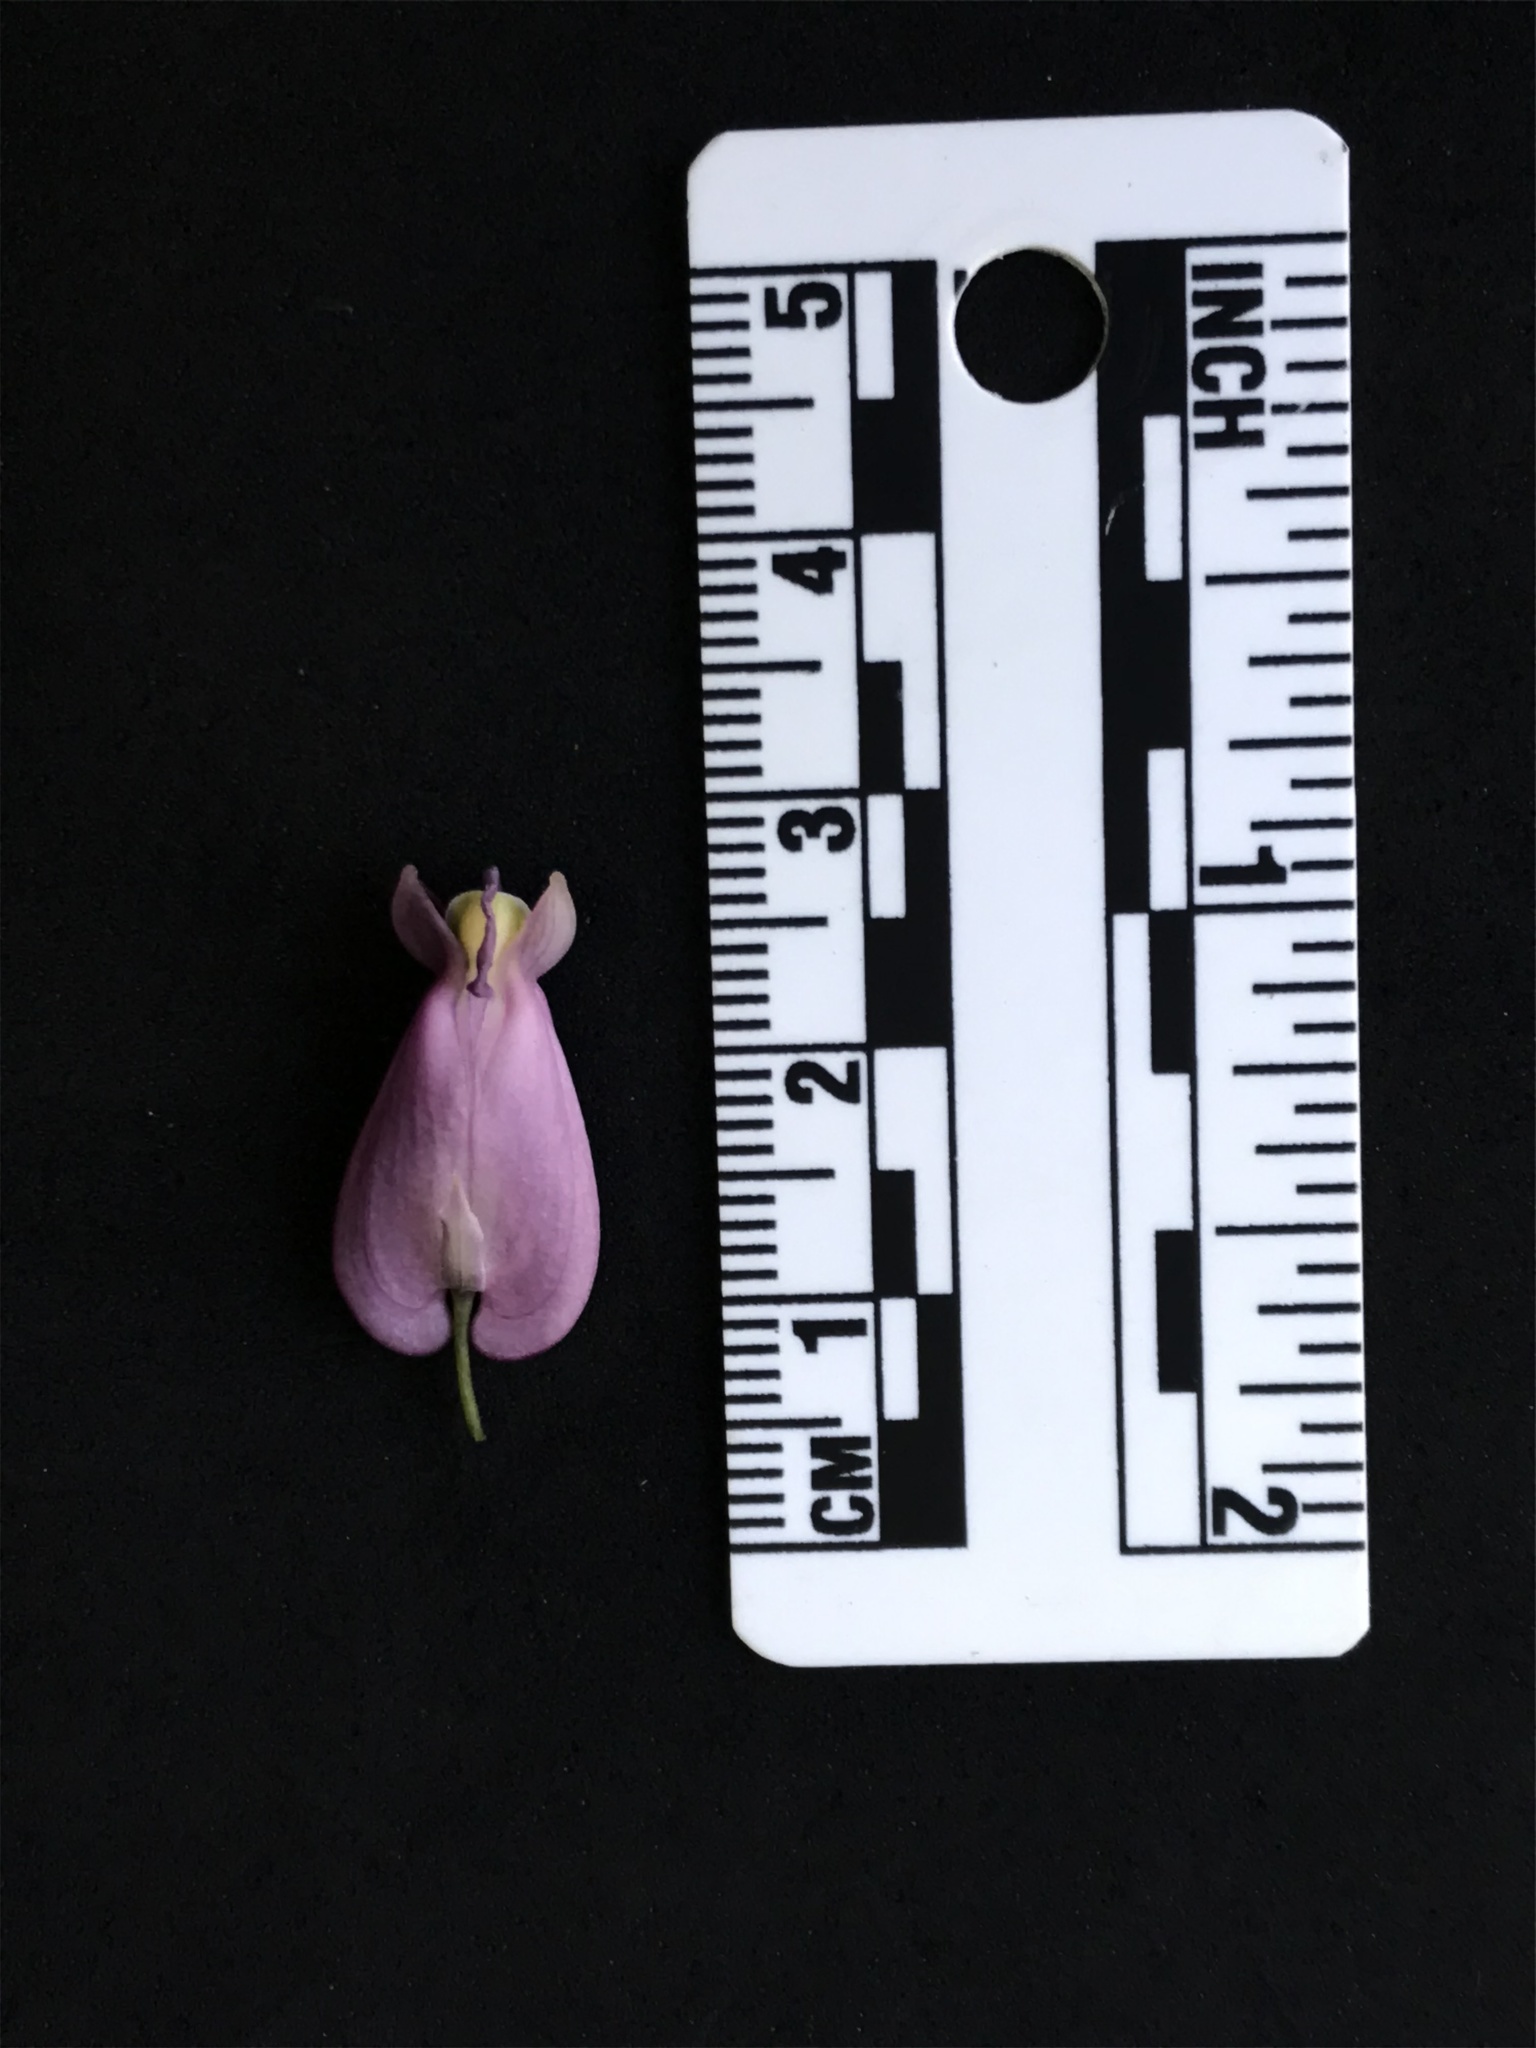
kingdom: Plantae
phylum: Tracheophyta
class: Magnoliopsida
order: Ranunculales
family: Papaveraceae
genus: Dicentra
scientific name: Dicentra formosa
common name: Bleeding-heart
